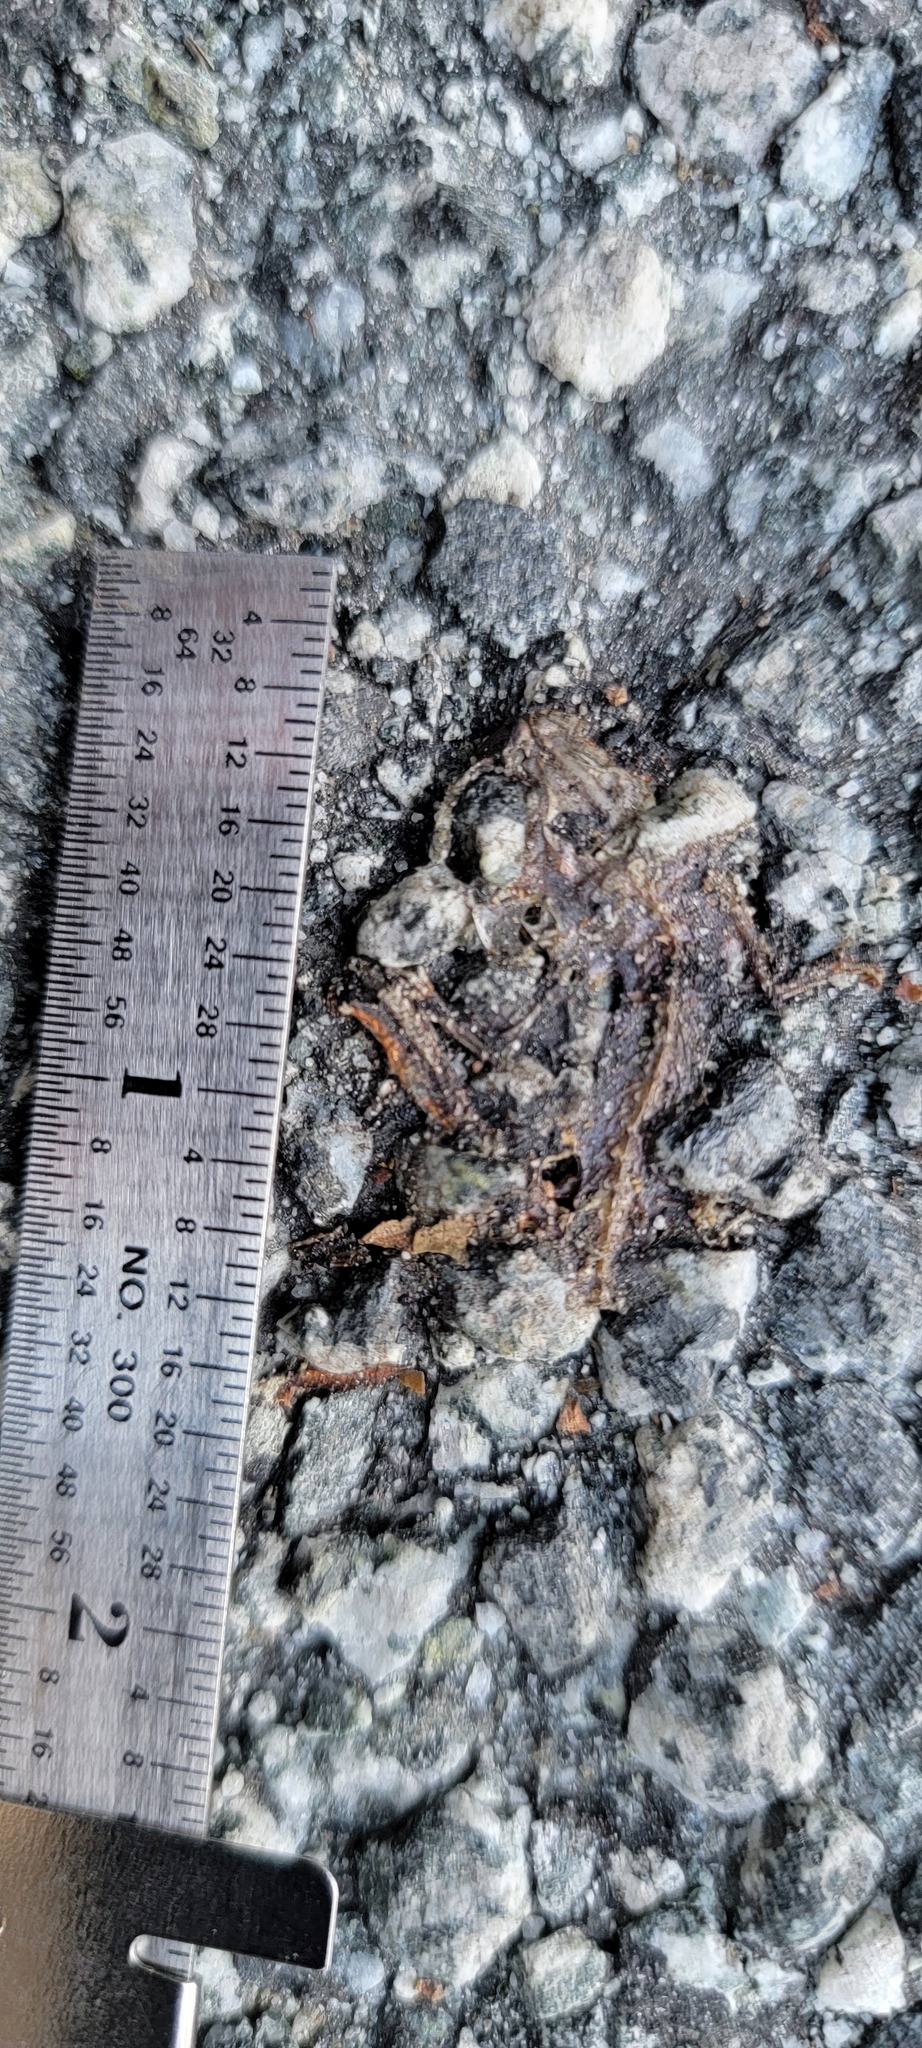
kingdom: Animalia
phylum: Chordata
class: Amphibia
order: Caudata
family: Salamandridae
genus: Taricha
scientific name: Taricha
